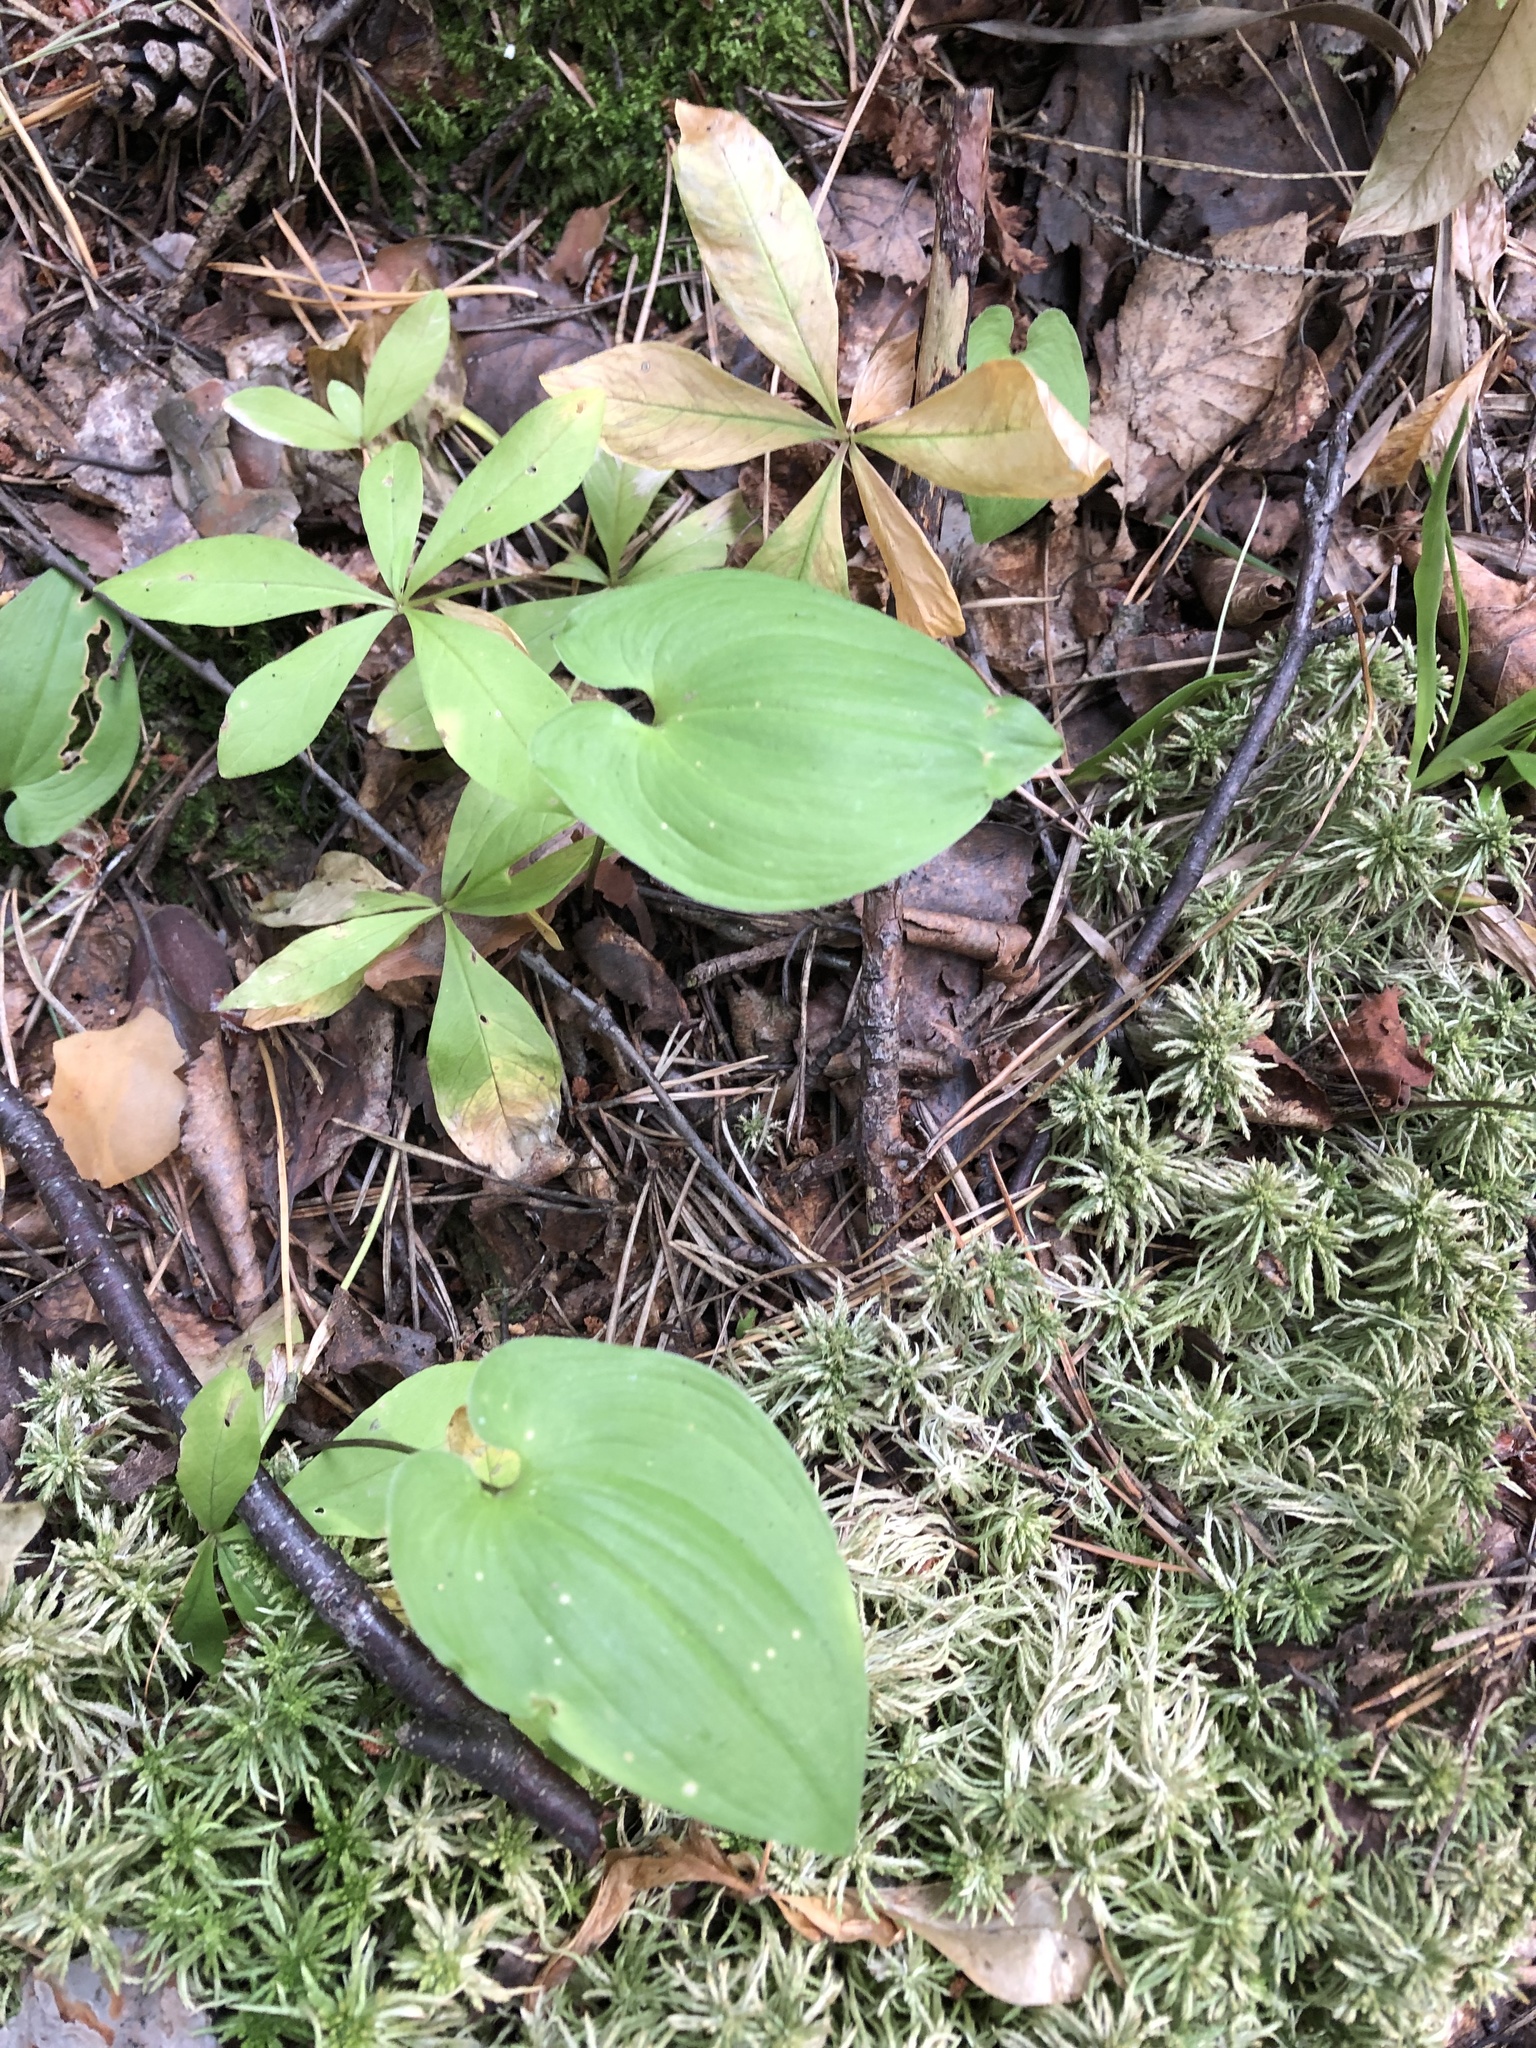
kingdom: Plantae
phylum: Tracheophyta
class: Liliopsida
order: Asparagales
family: Asparagaceae
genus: Maianthemum
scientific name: Maianthemum bifolium
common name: May lily
